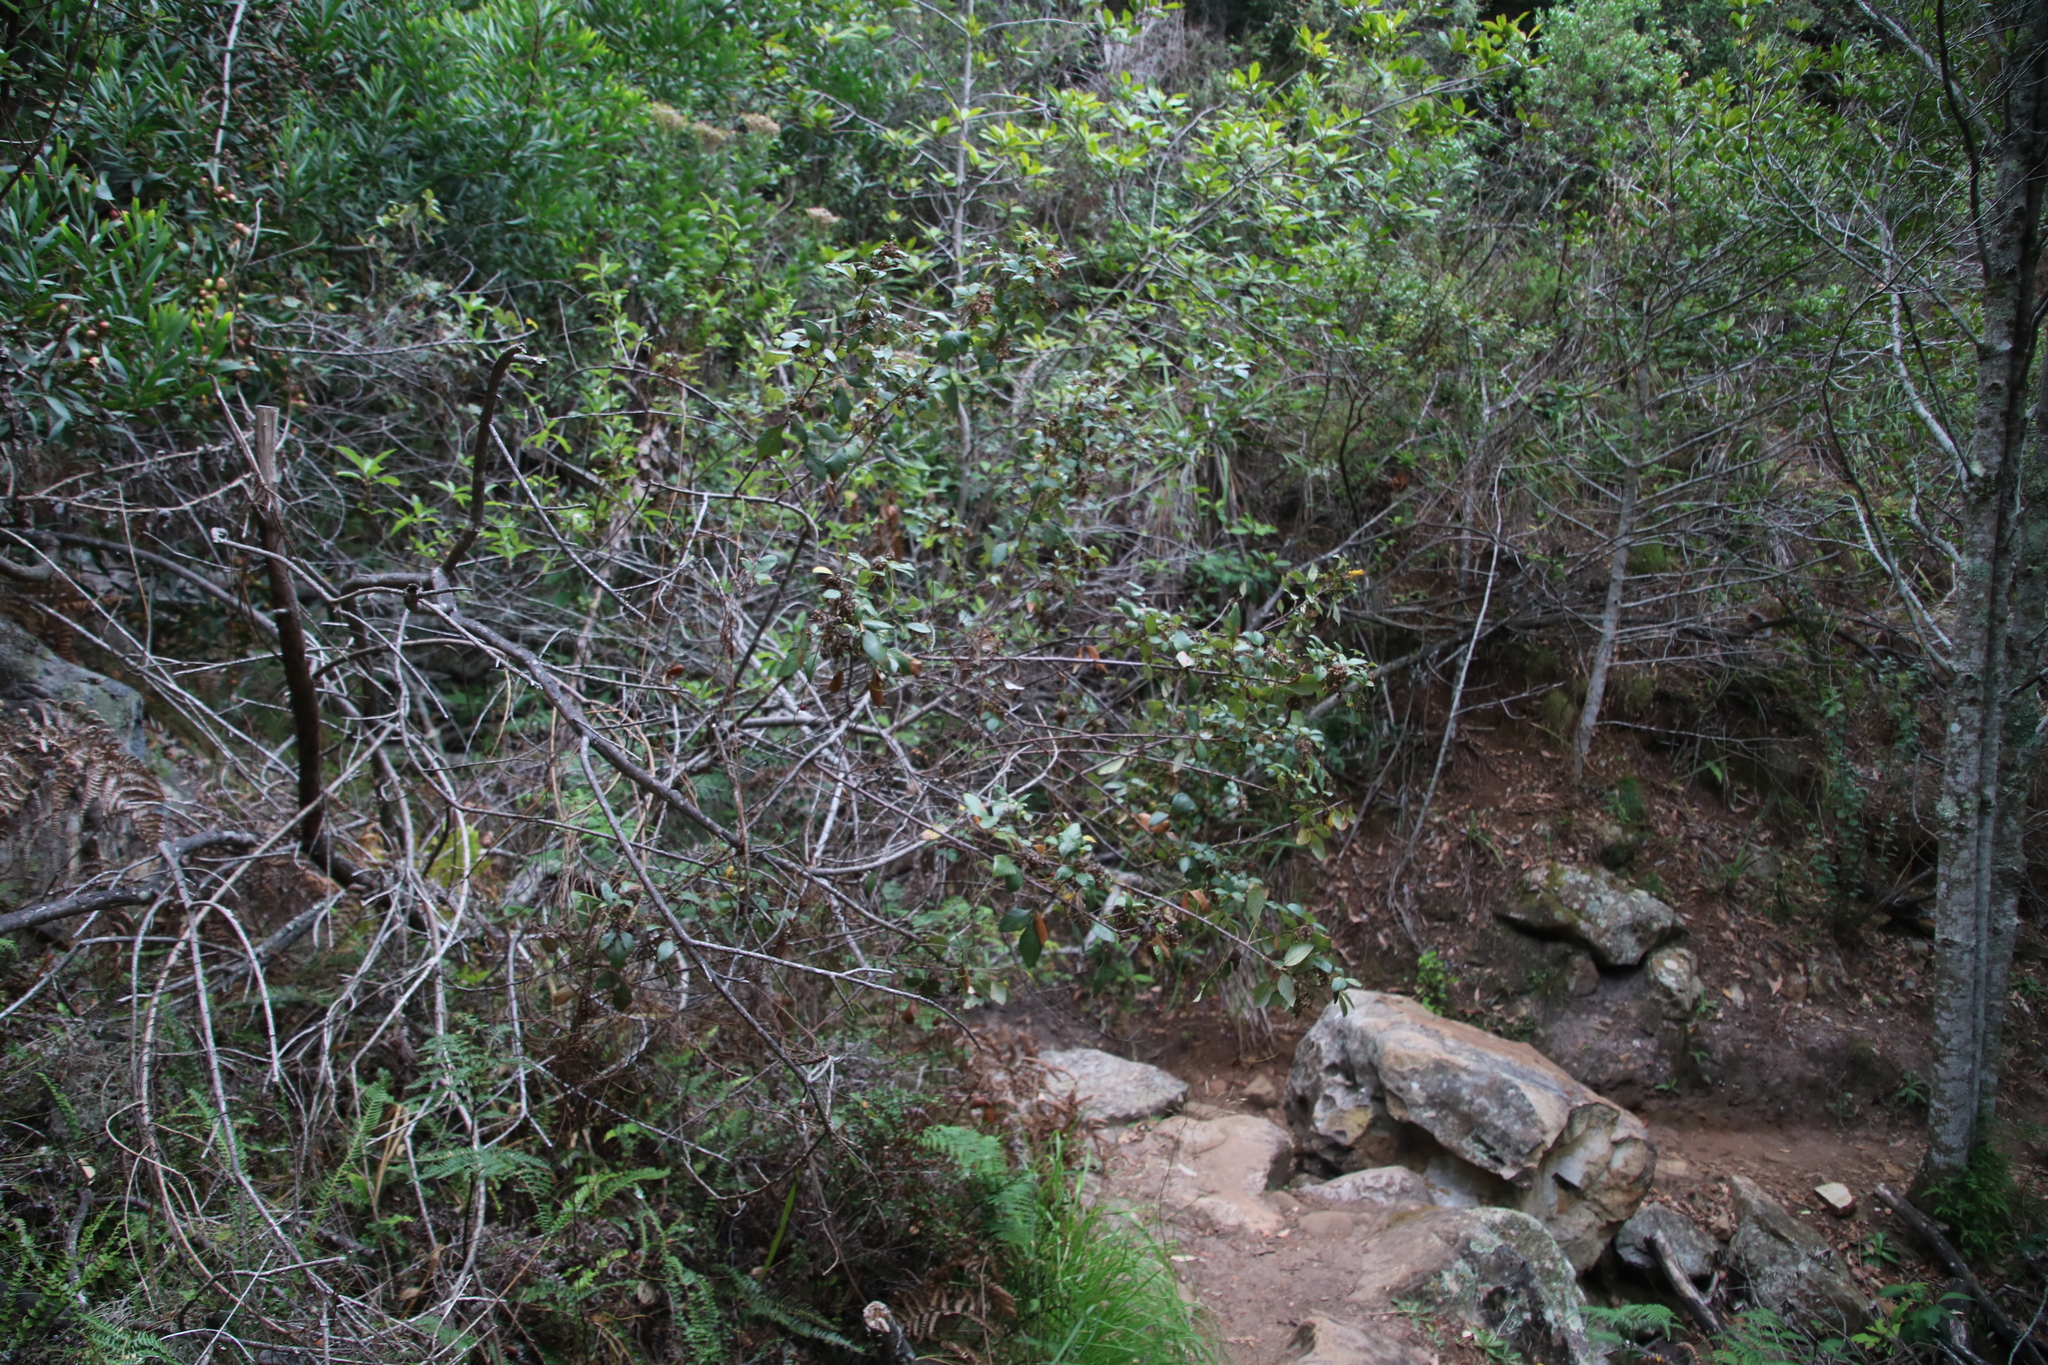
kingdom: Plantae
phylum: Tracheophyta
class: Magnoliopsida
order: Sapindales
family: Anacardiaceae
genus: Searsia
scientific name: Searsia tomentosa
